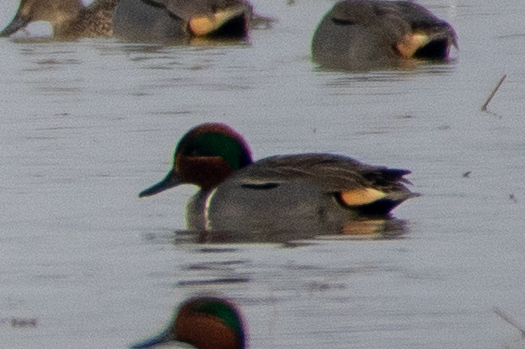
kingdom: Animalia
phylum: Chordata
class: Aves
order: Anseriformes
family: Anatidae
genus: Anas
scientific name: Anas crecca
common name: Eurasian teal
